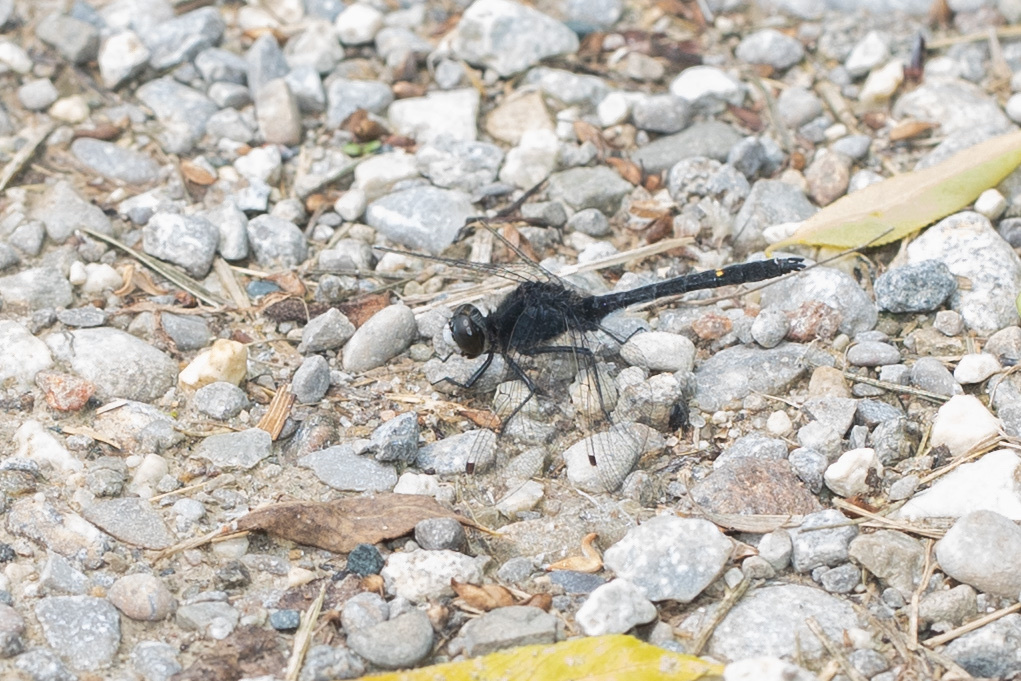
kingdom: Animalia
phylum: Arthropoda
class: Insecta
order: Odonata
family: Libellulidae
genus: Leucorrhinia
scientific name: Leucorrhinia intacta
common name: Dot-tailed whiteface
